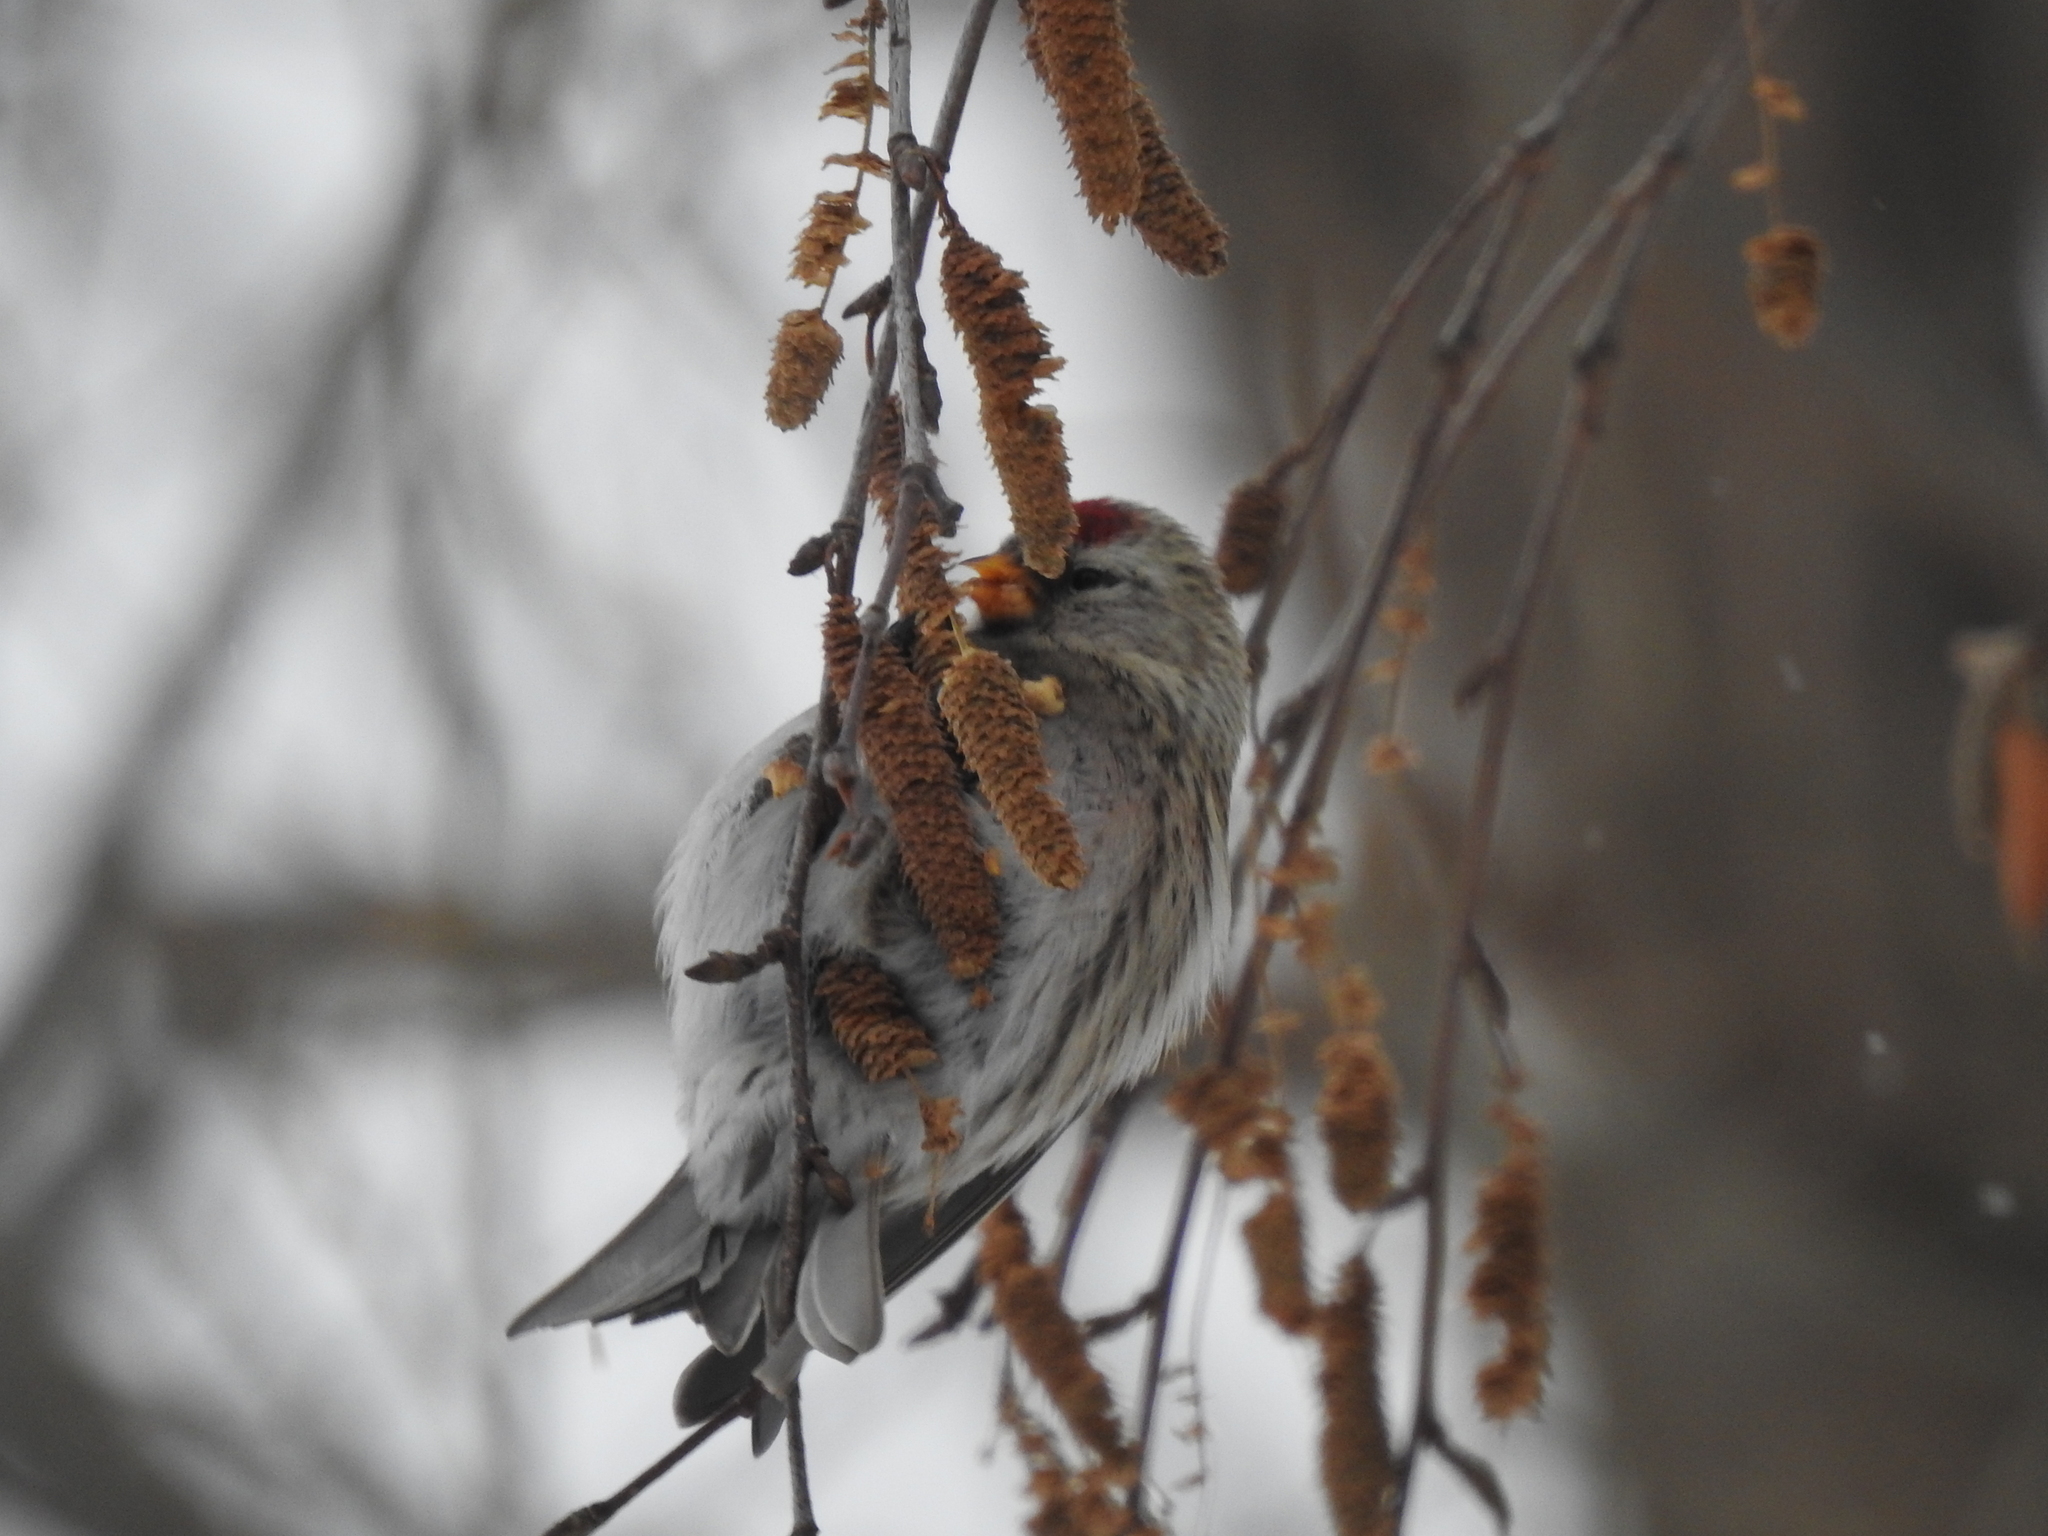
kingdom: Animalia
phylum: Chordata
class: Aves
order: Passeriformes
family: Fringillidae
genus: Acanthis
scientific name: Acanthis flammea
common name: Common redpoll
